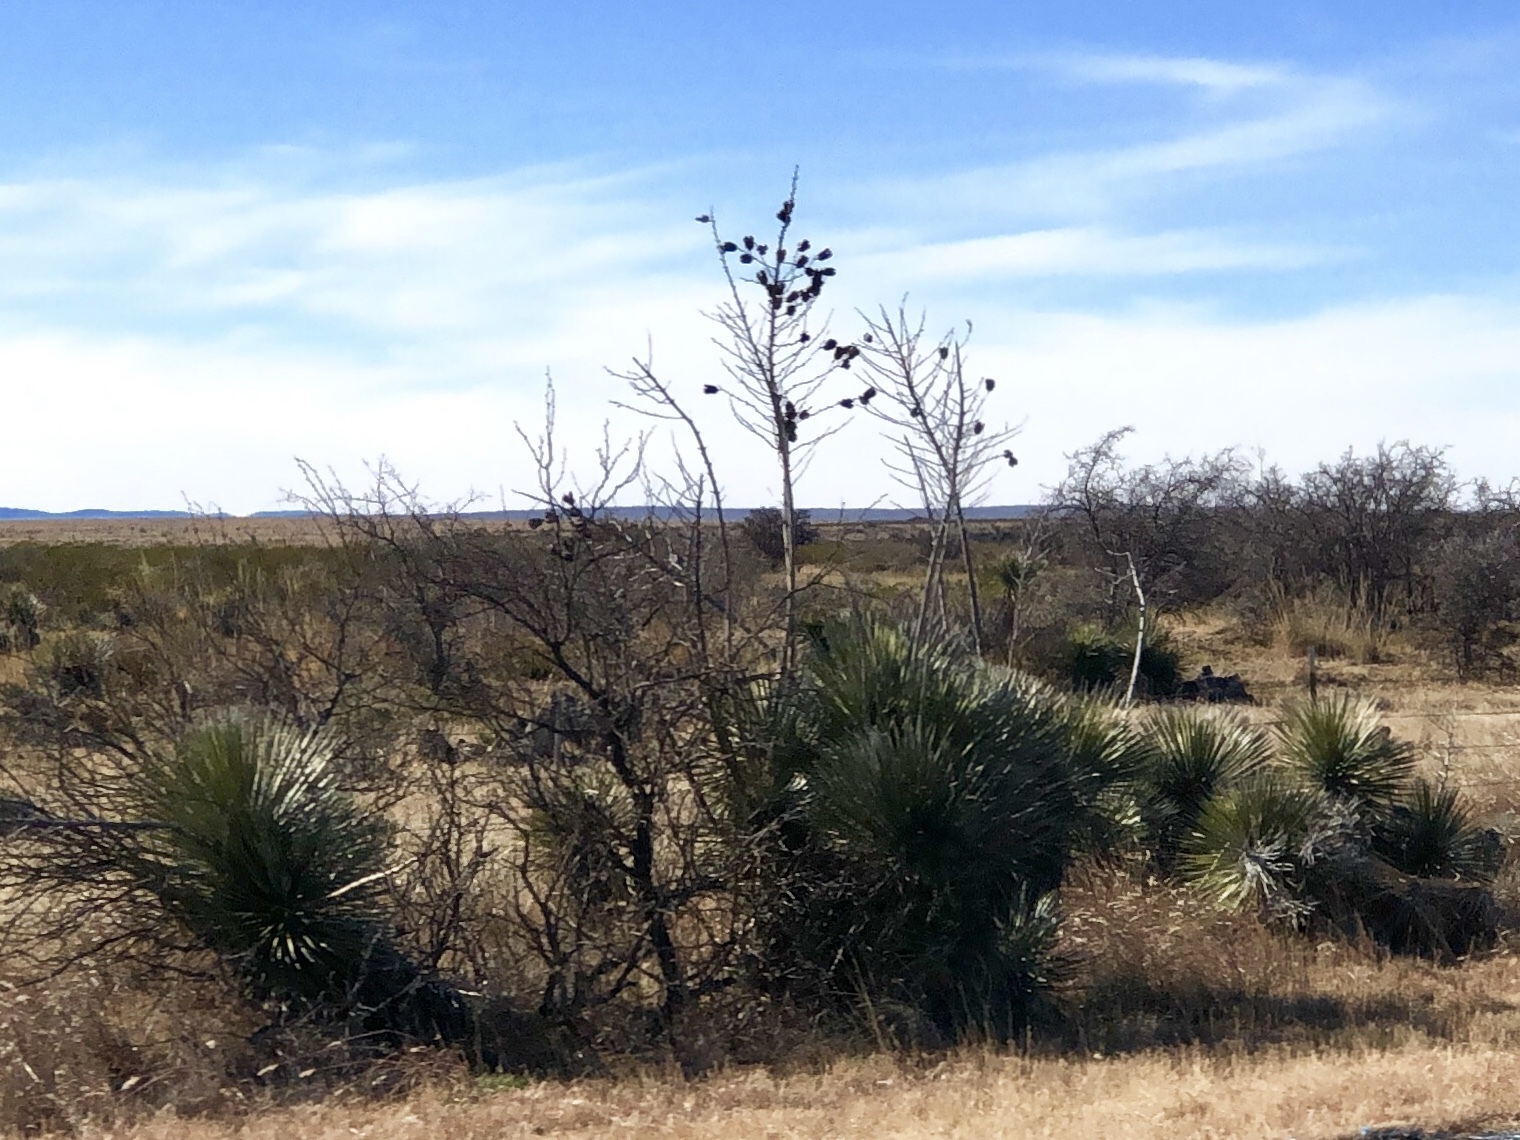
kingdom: Plantae
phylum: Tracheophyta
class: Liliopsida
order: Asparagales
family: Asparagaceae
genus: Yucca
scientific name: Yucca elata
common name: Palmella
